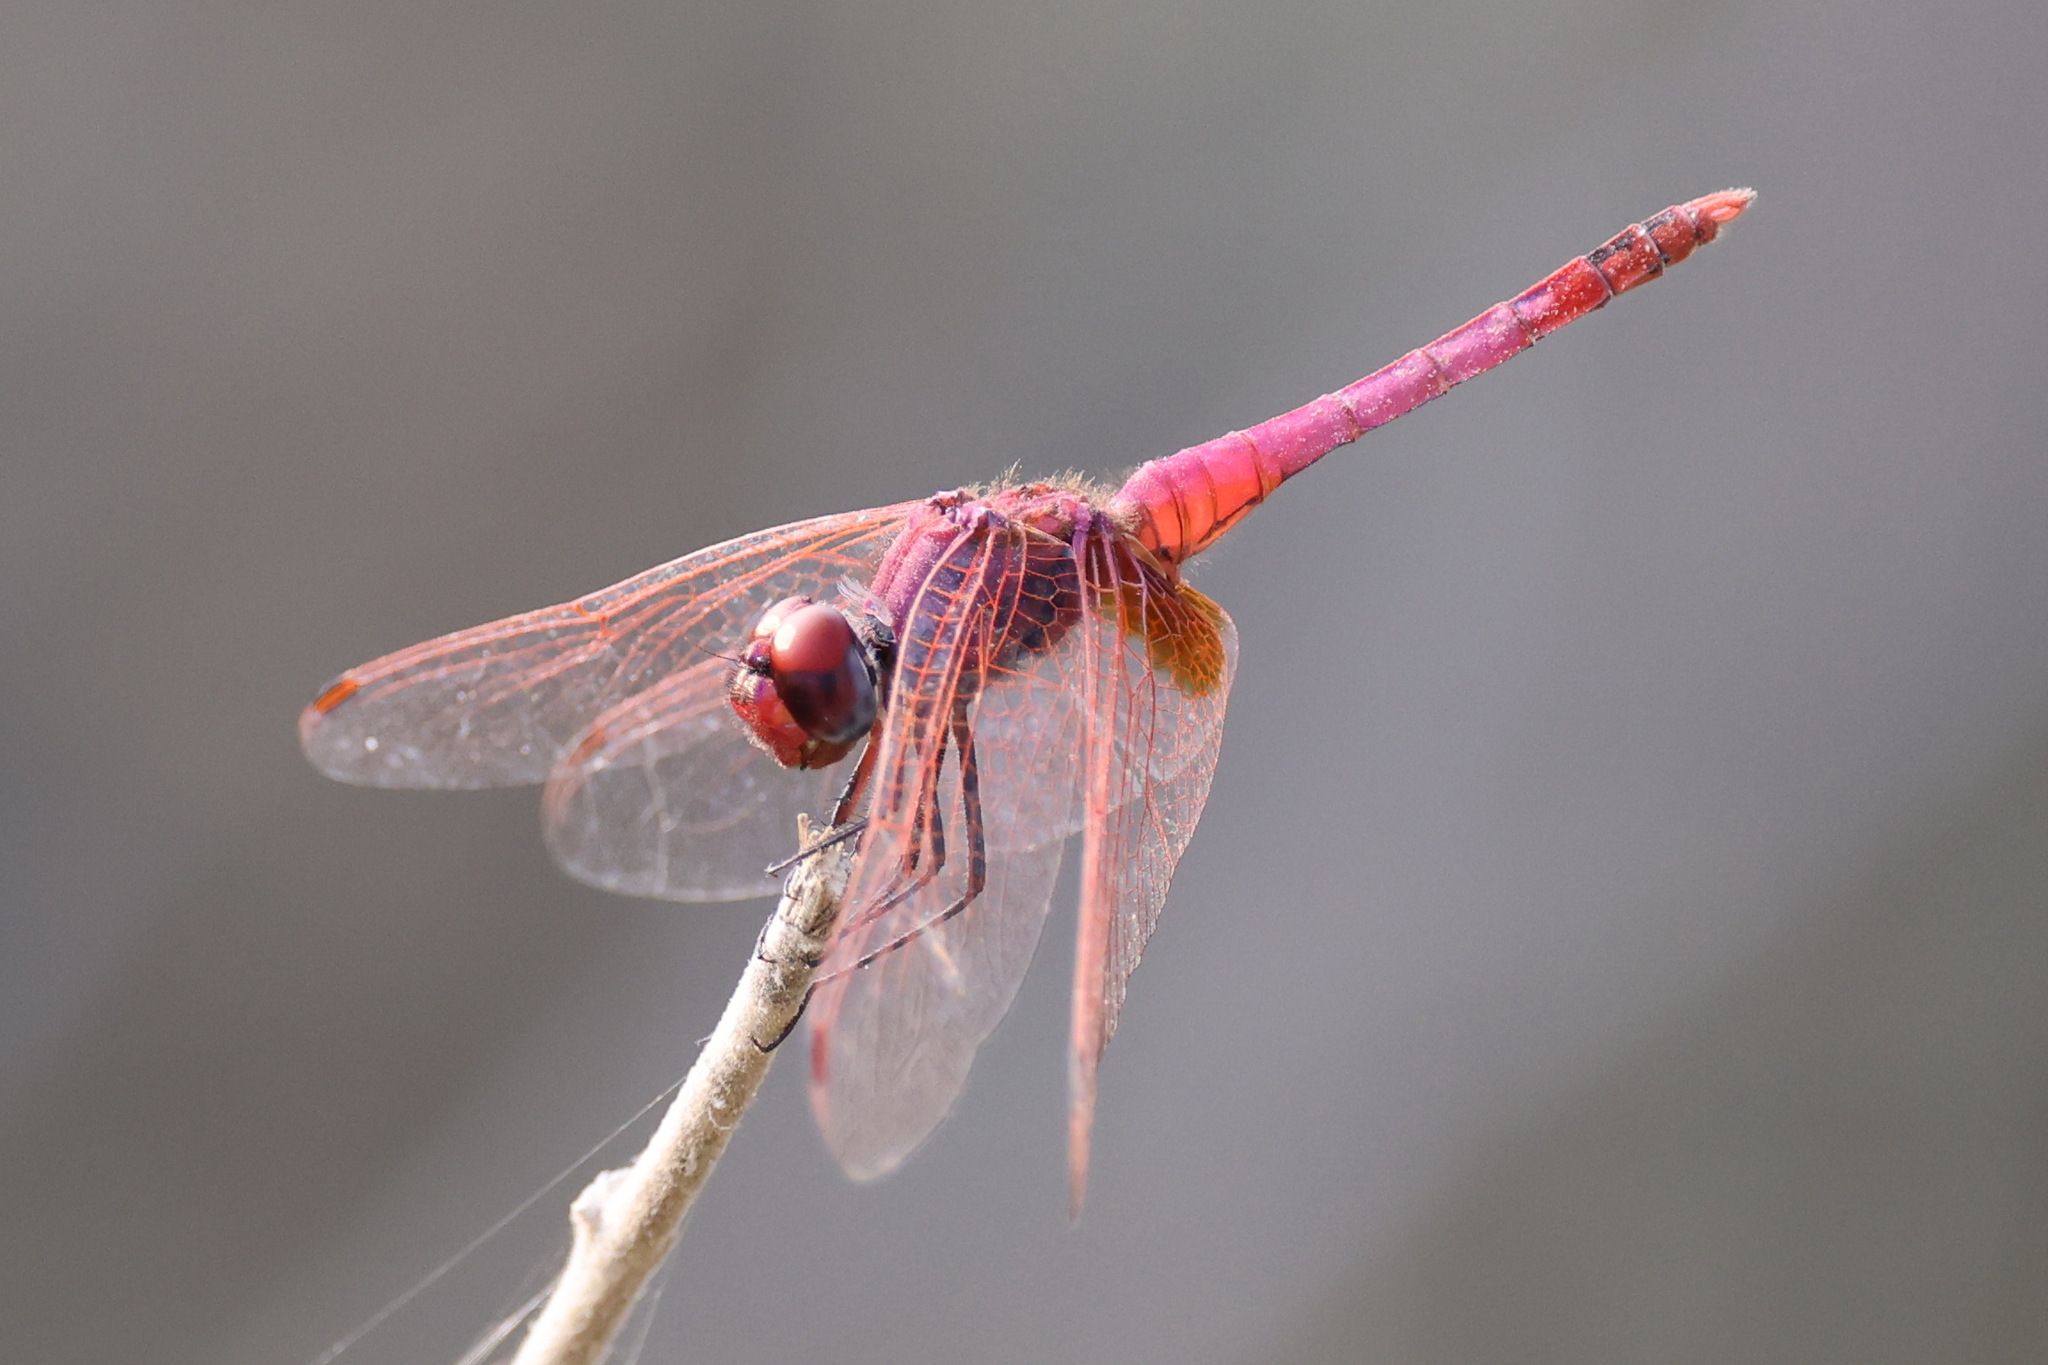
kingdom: Animalia
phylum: Arthropoda
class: Insecta
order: Odonata
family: Libellulidae
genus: Trithemis
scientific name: Trithemis annulata
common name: Violet dropwing
